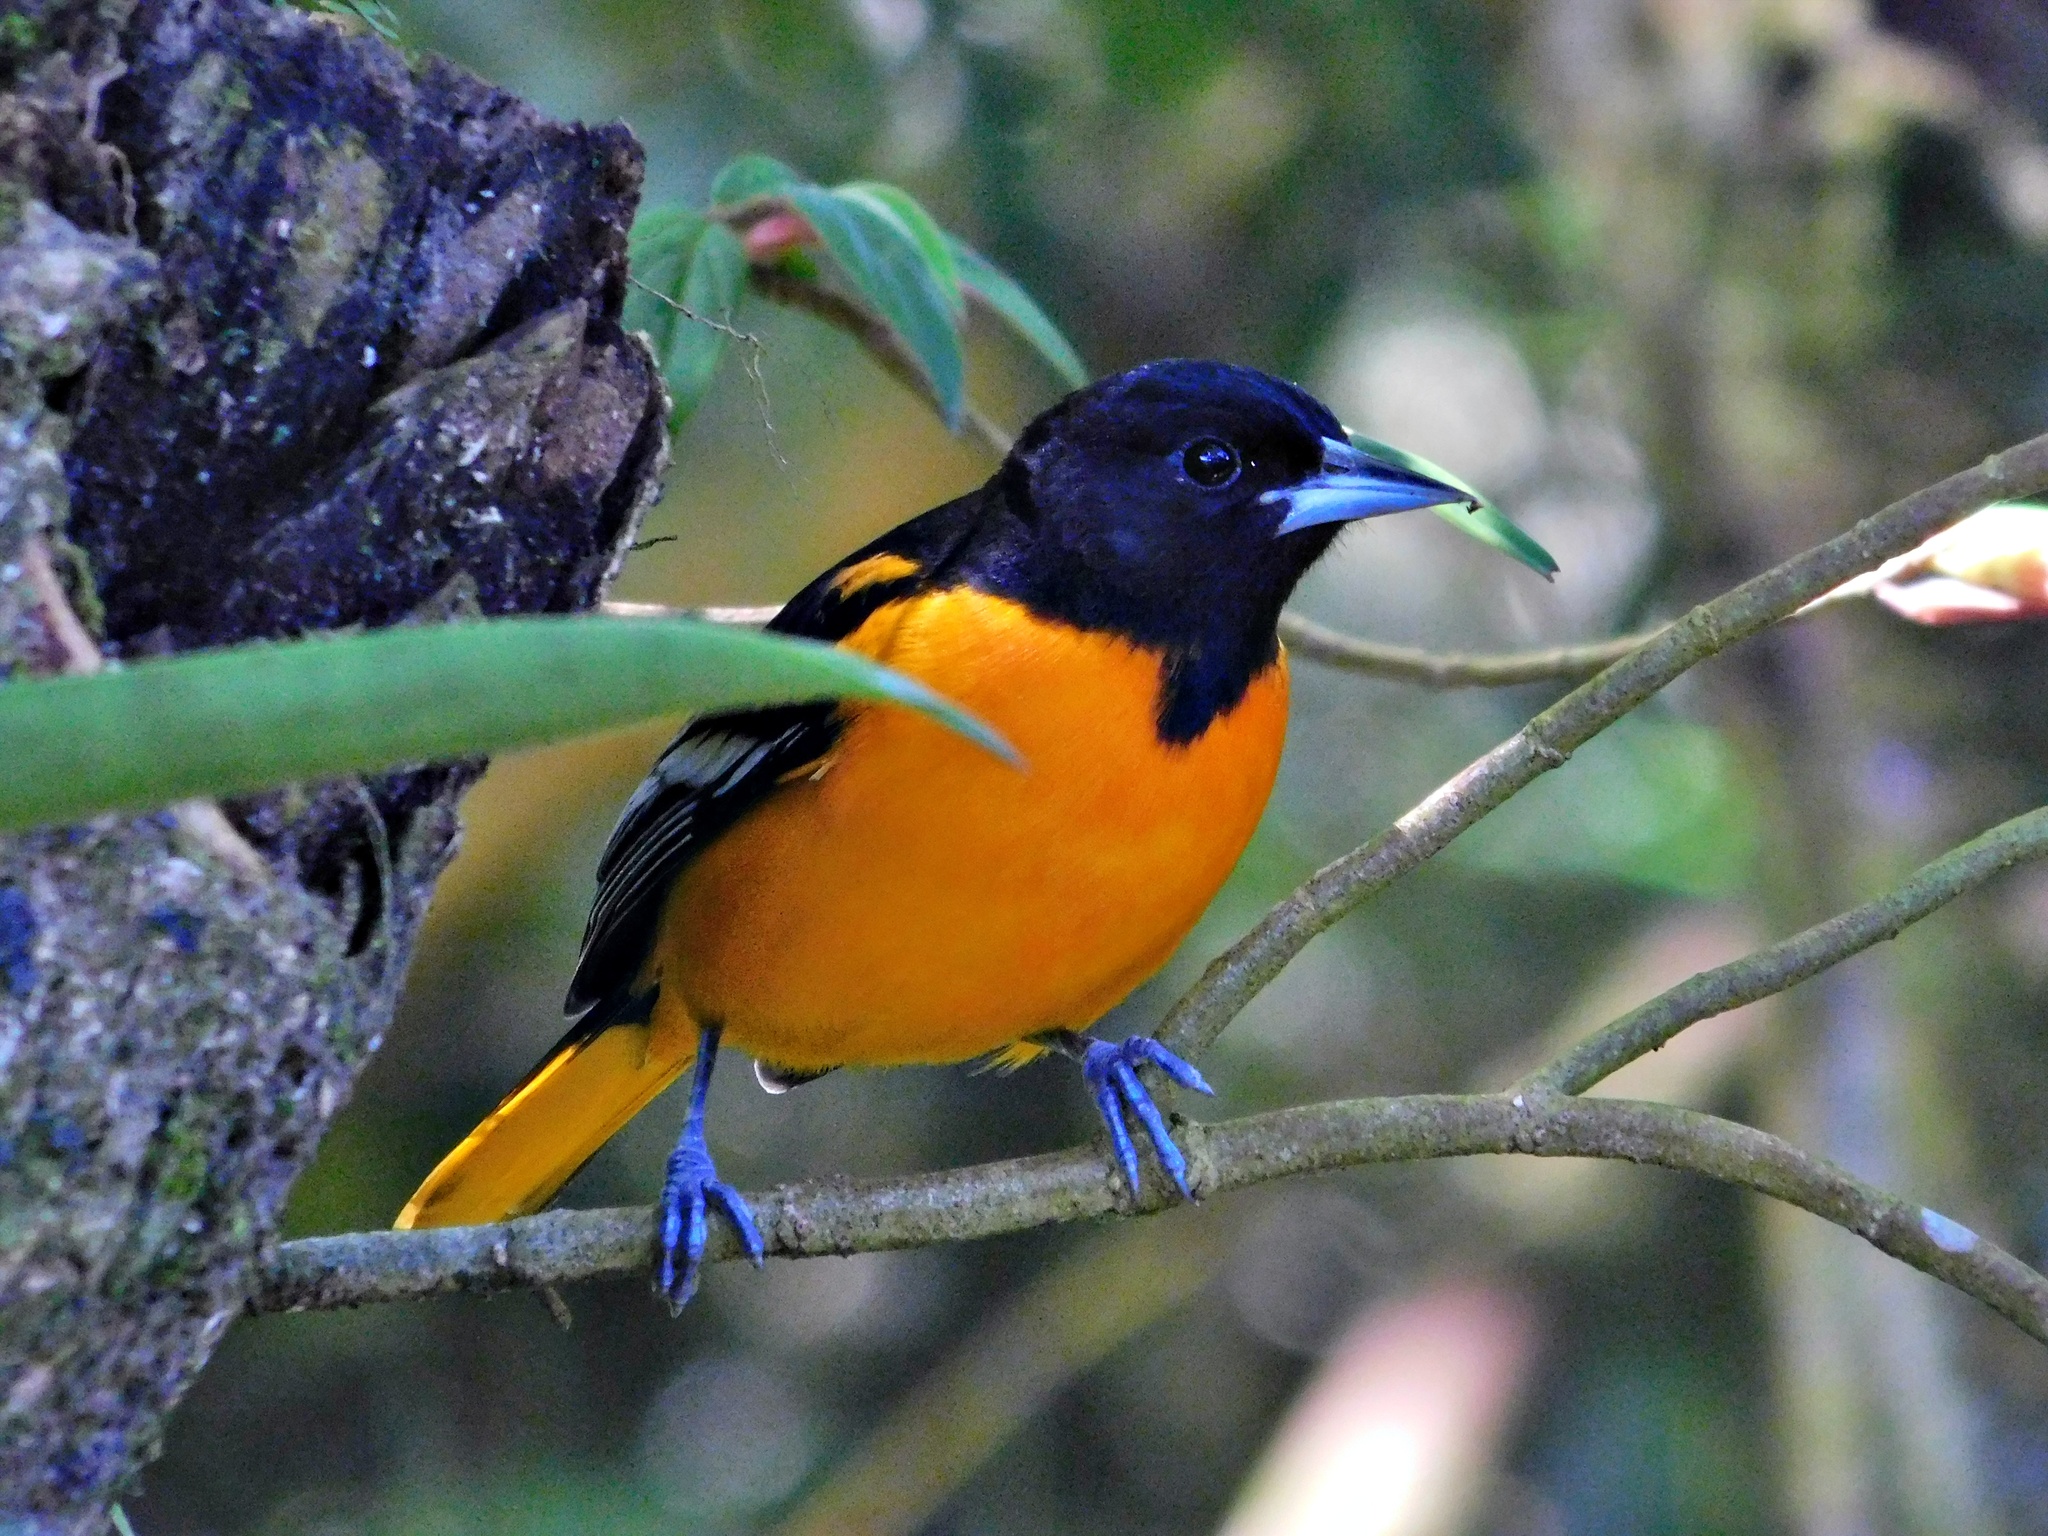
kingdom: Animalia
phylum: Chordata
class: Aves
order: Passeriformes
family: Icteridae
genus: Icterus
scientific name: Icterus galbula
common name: Baltimore oriole
